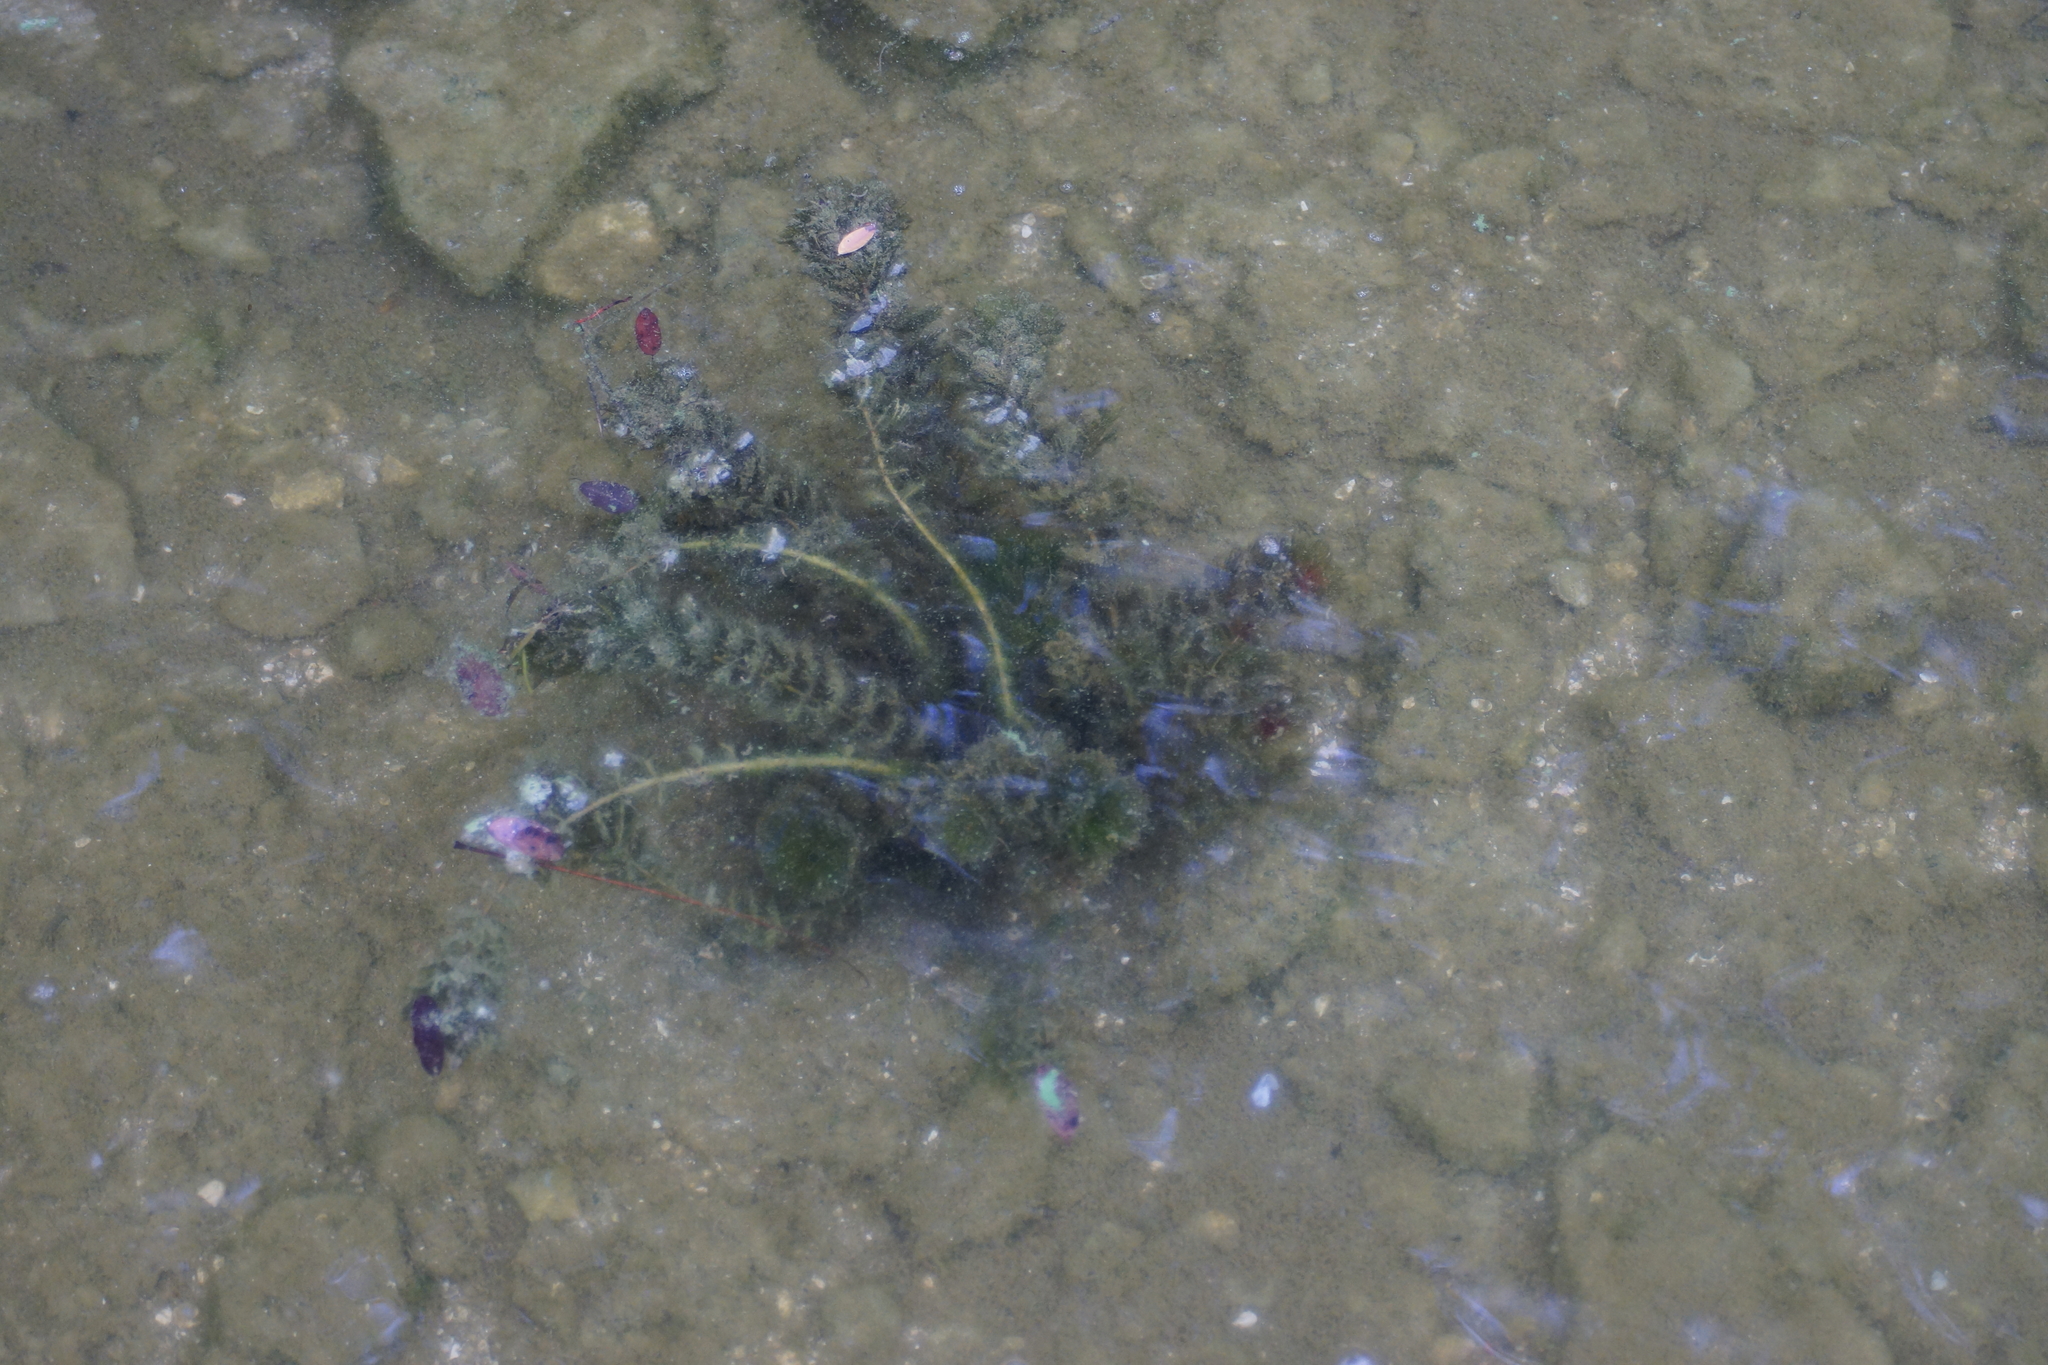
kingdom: Plantae
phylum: Tracheophyta
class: Magnoliopsida
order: Ceratophyllales
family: Ceratophyllaceae
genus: Ceratophyllum
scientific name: Ceratophyllum demersum
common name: Rigid hornwort
